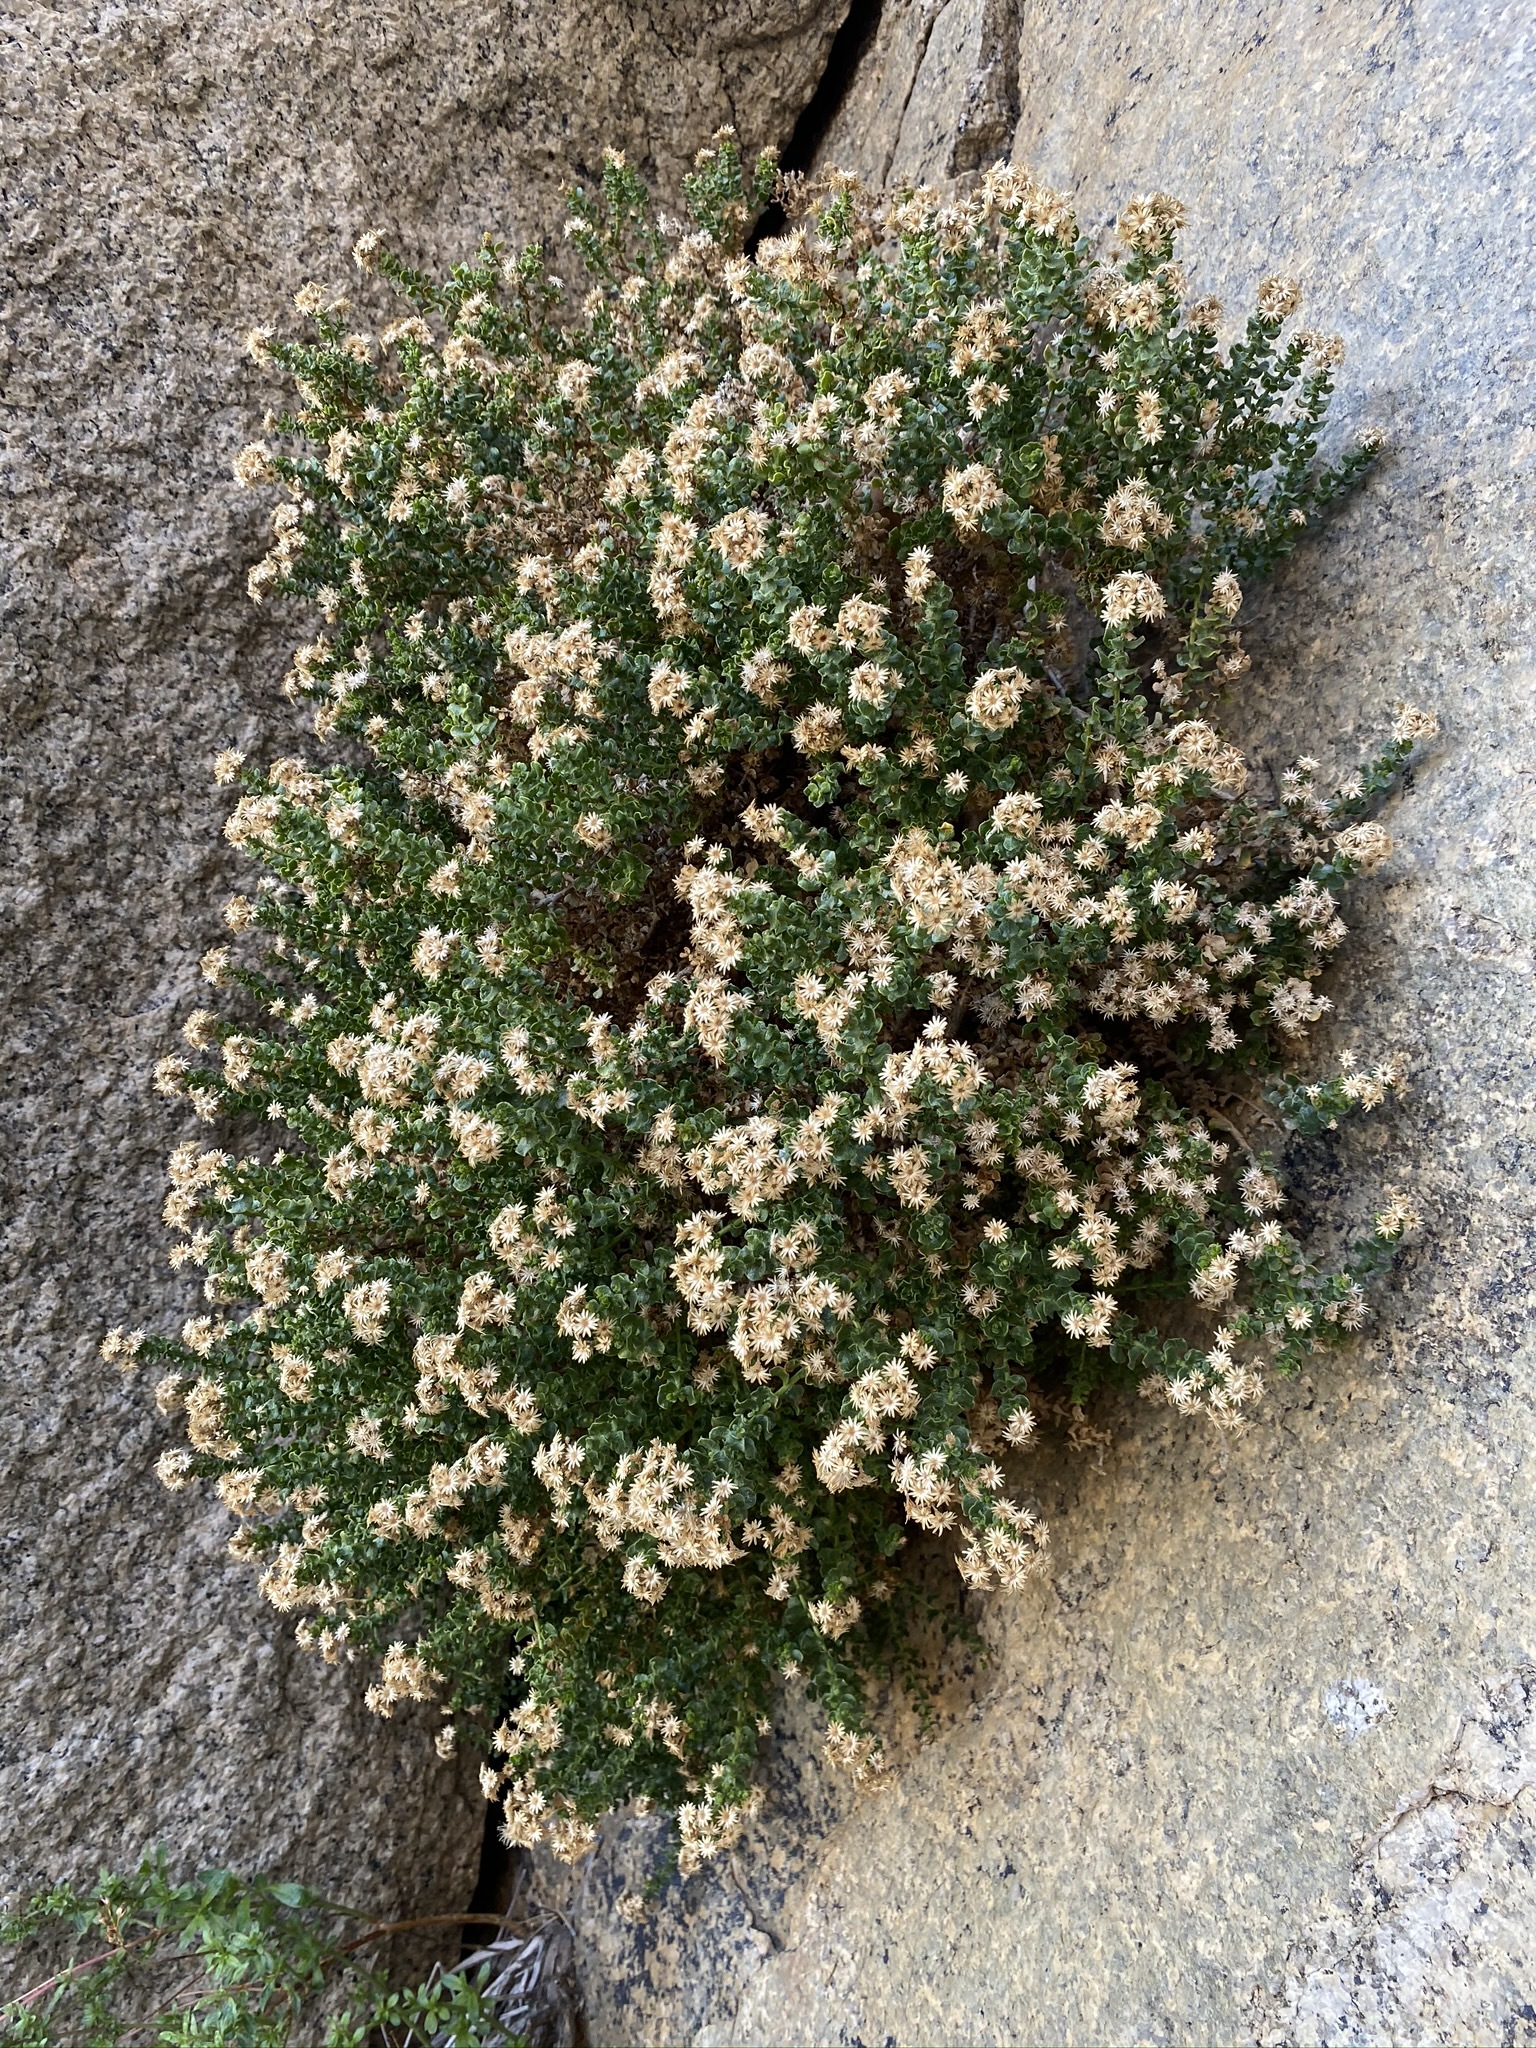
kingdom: Plantae
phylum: Tracheophyta
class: Magnoliopsida
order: Asterales
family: Asteraceae
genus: Ericameria
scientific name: Ericameria cuneata
